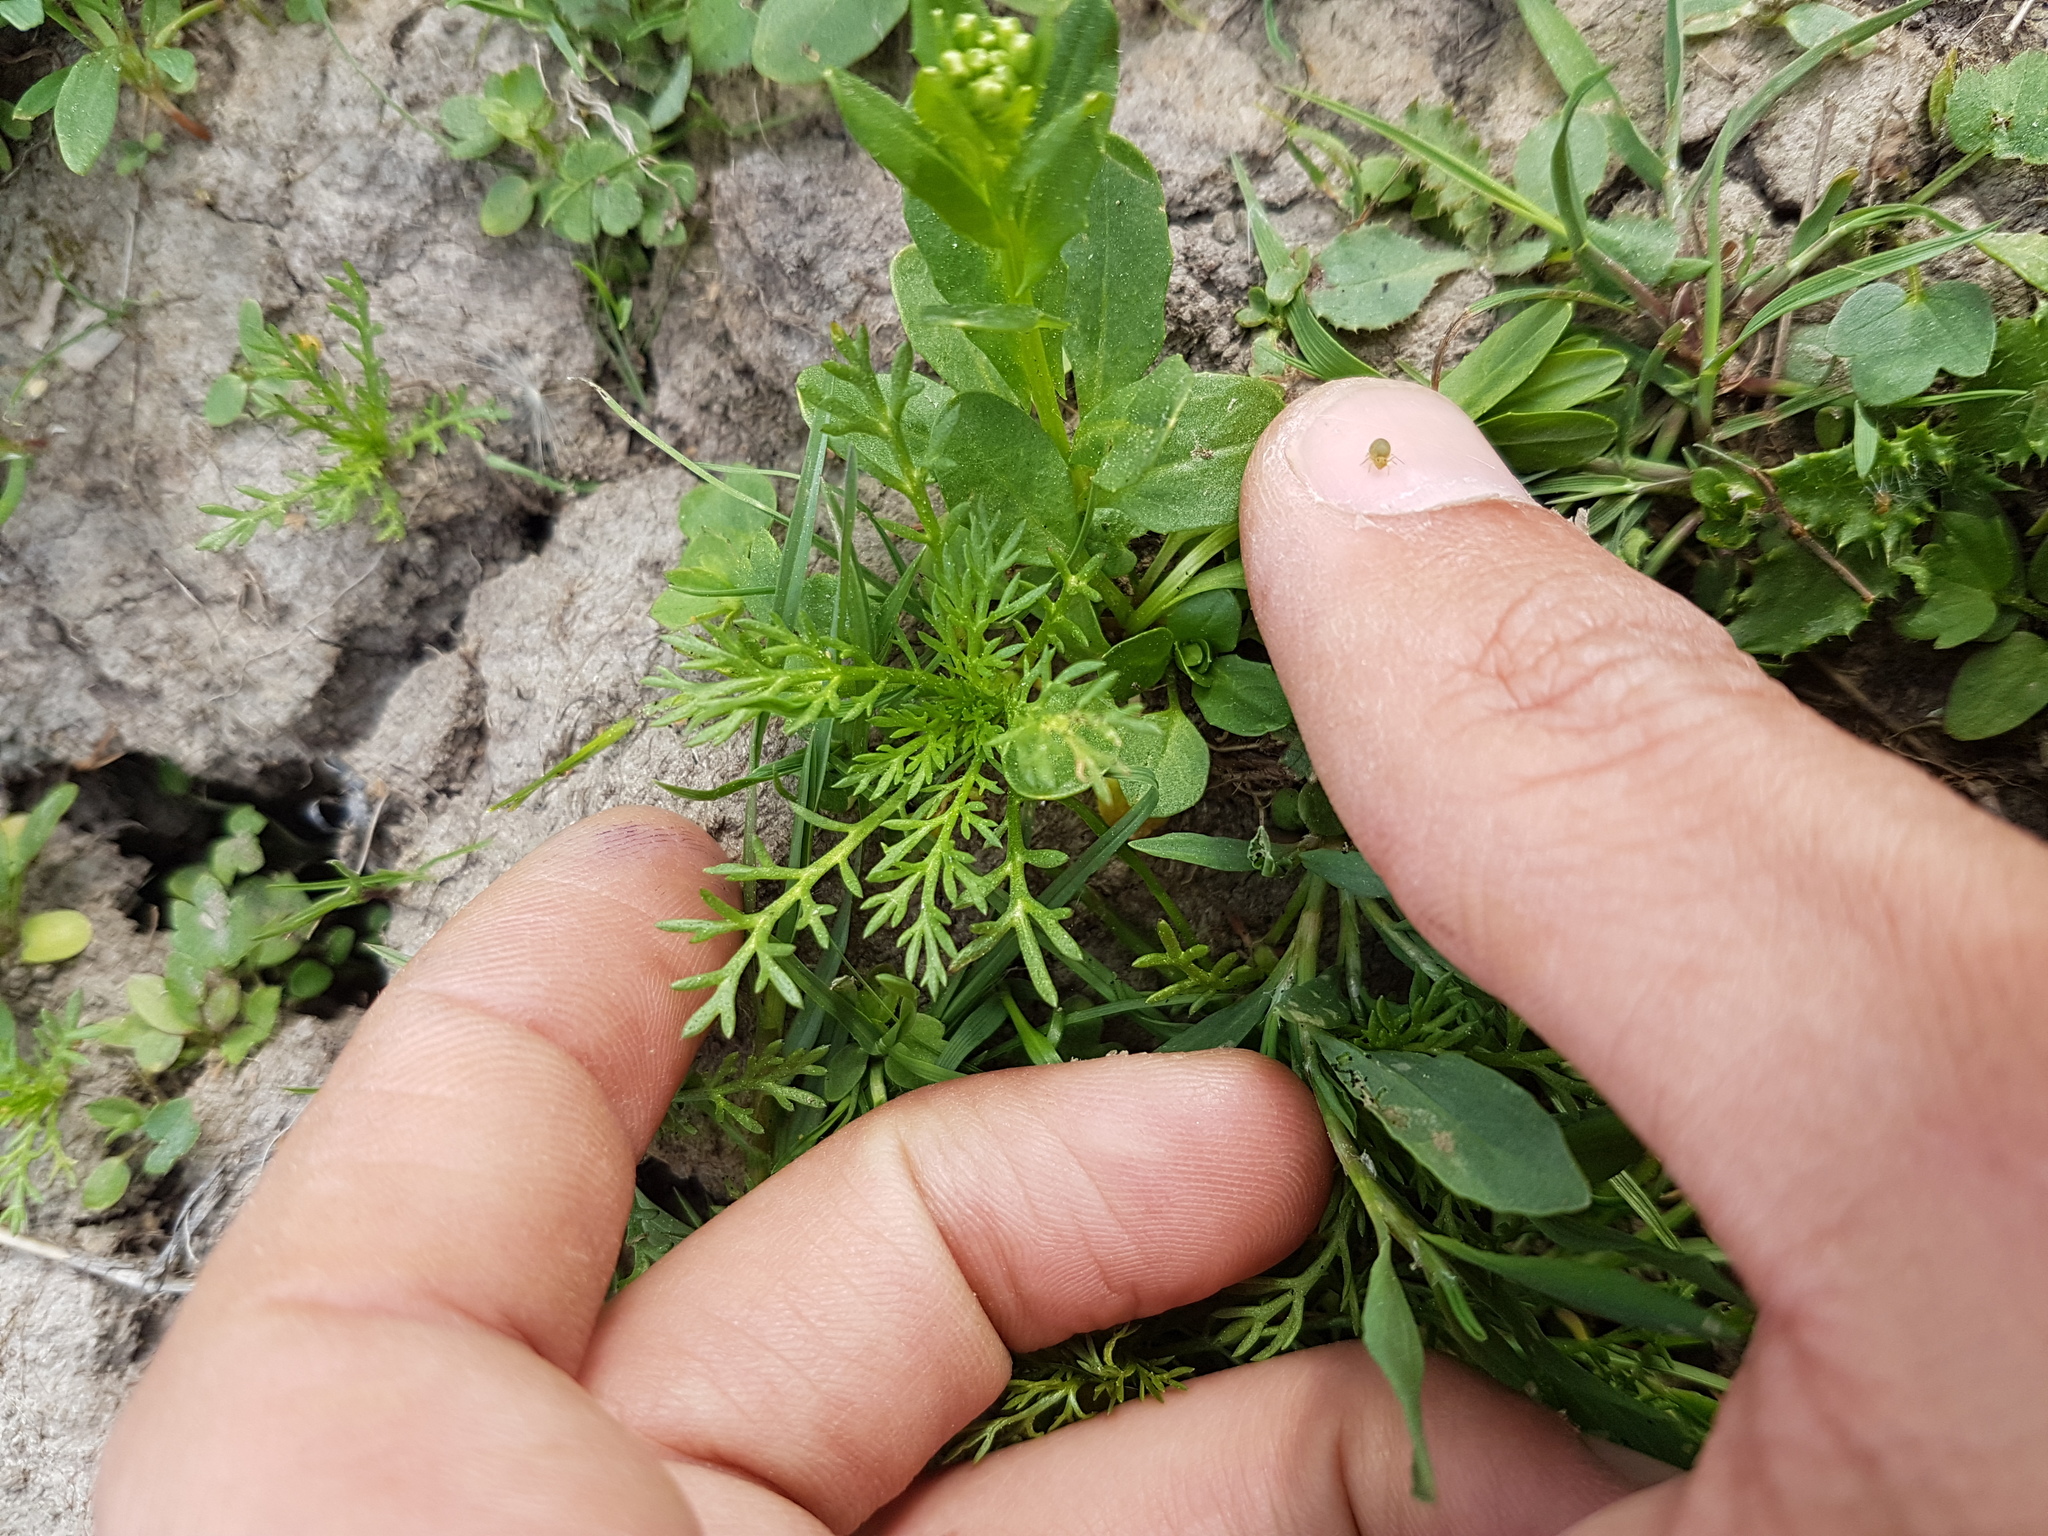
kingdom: Plantae
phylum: Tracheophyta
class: Magnoliopsida
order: Asterales
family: Asteraceae
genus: Matricaria
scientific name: Matricaria chamomilla
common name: Scented mayweed
